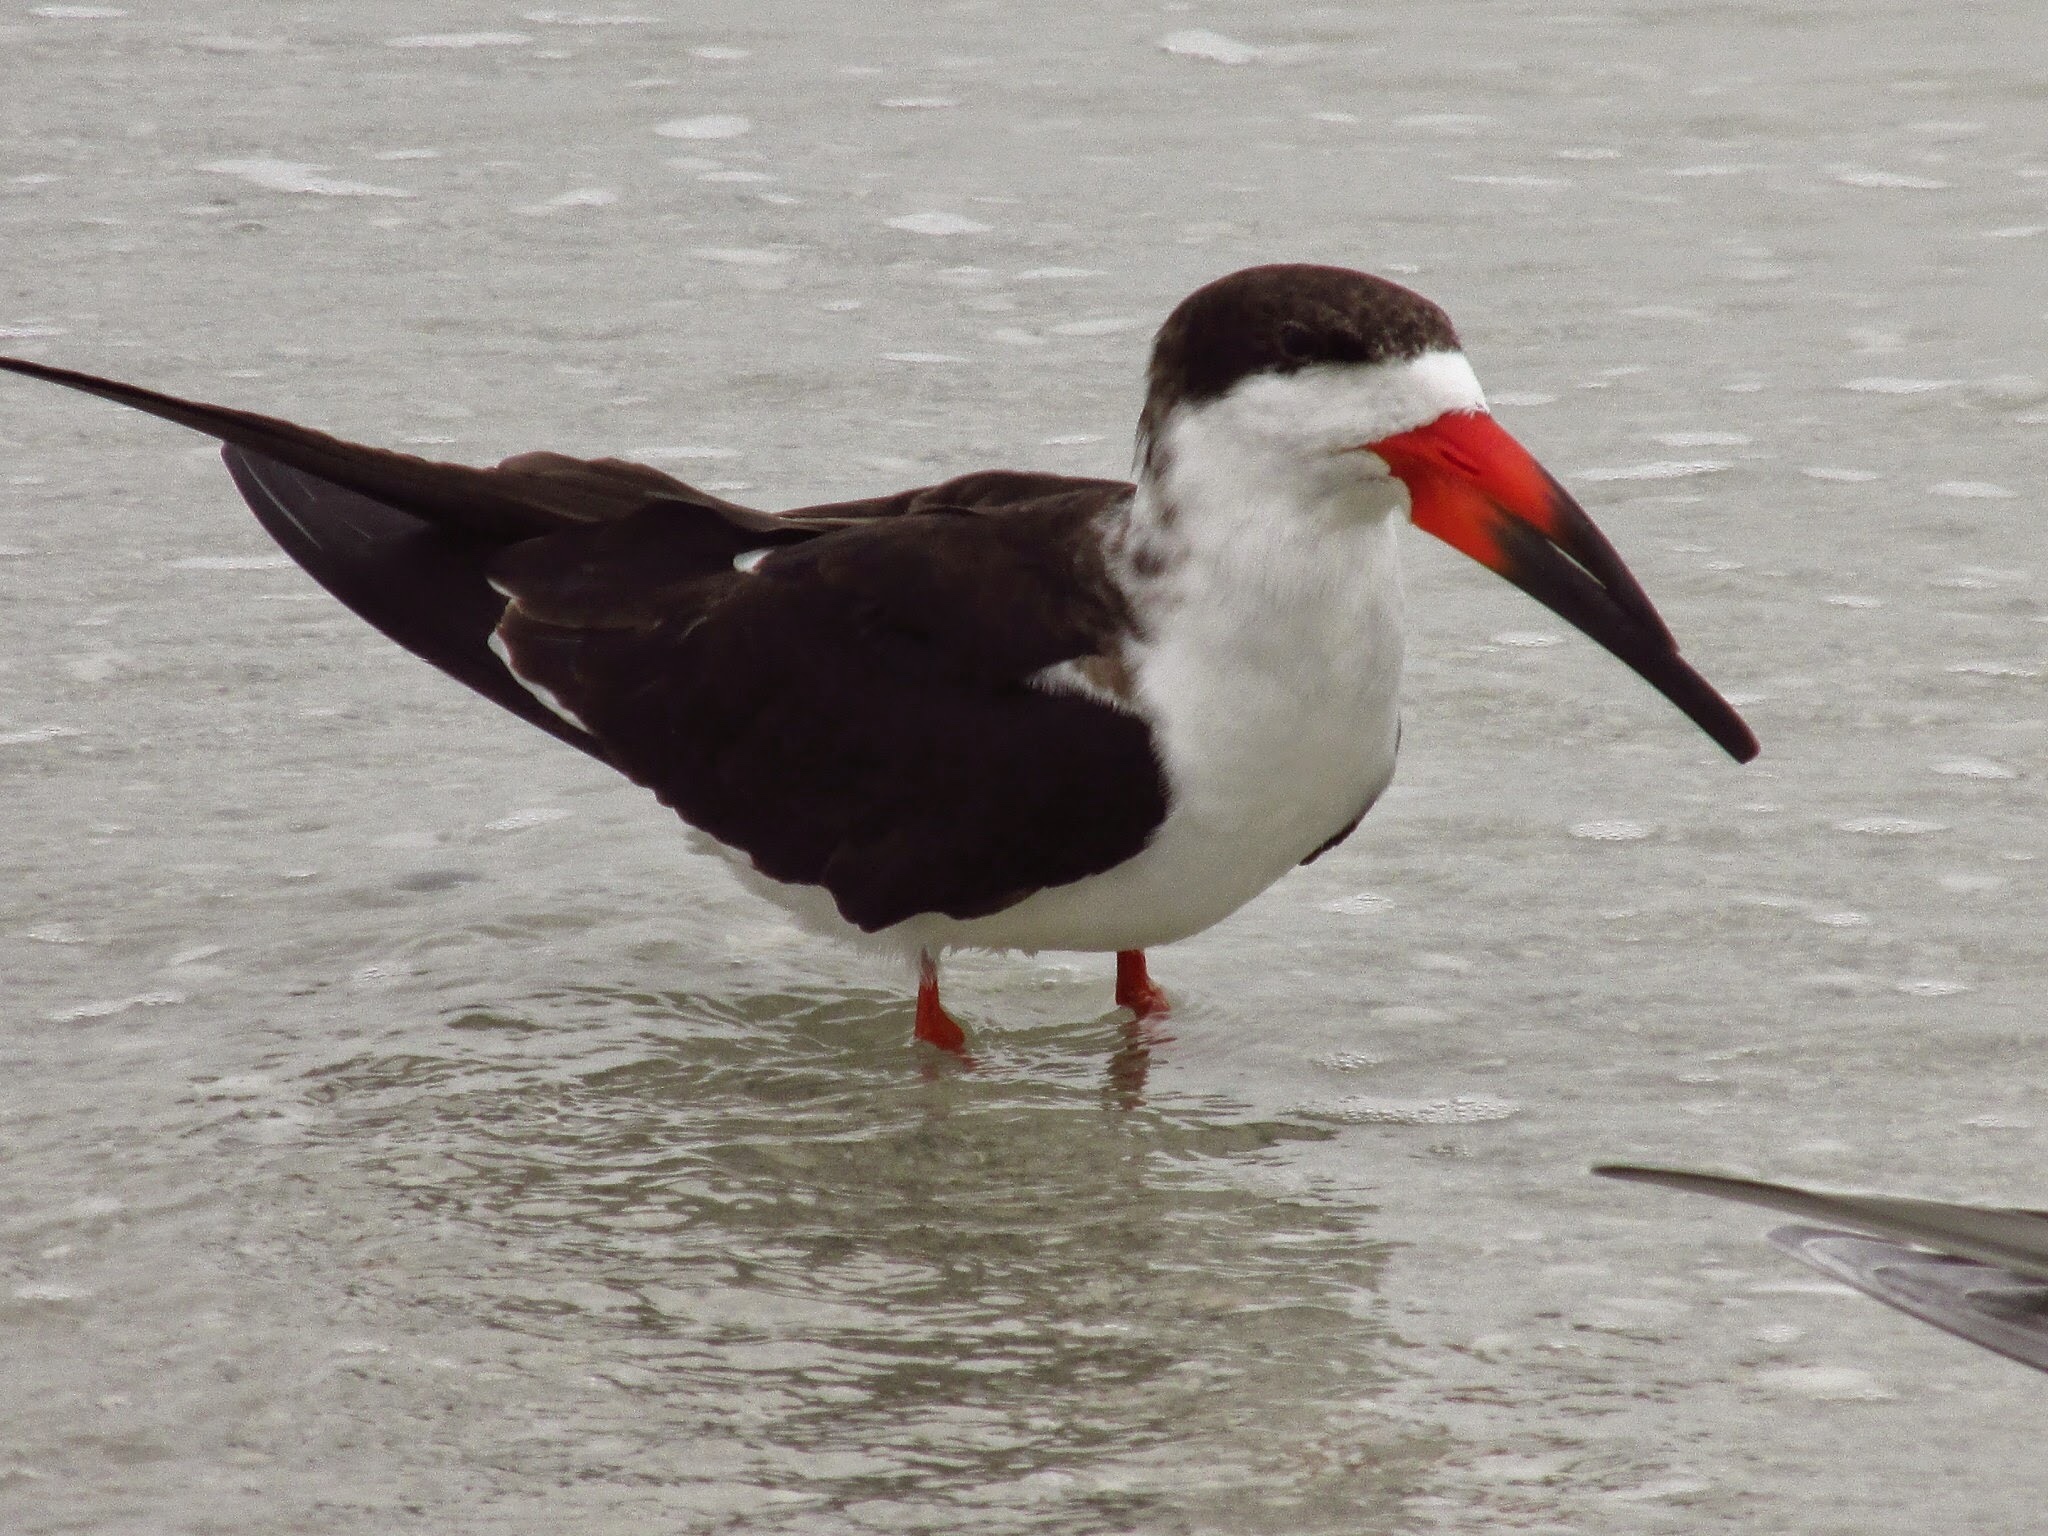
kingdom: Animalia
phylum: Chordata
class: Aves
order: Charadriiformes
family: Laridae
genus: Rynchops
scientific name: Rynchops niger
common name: Black skimmer
